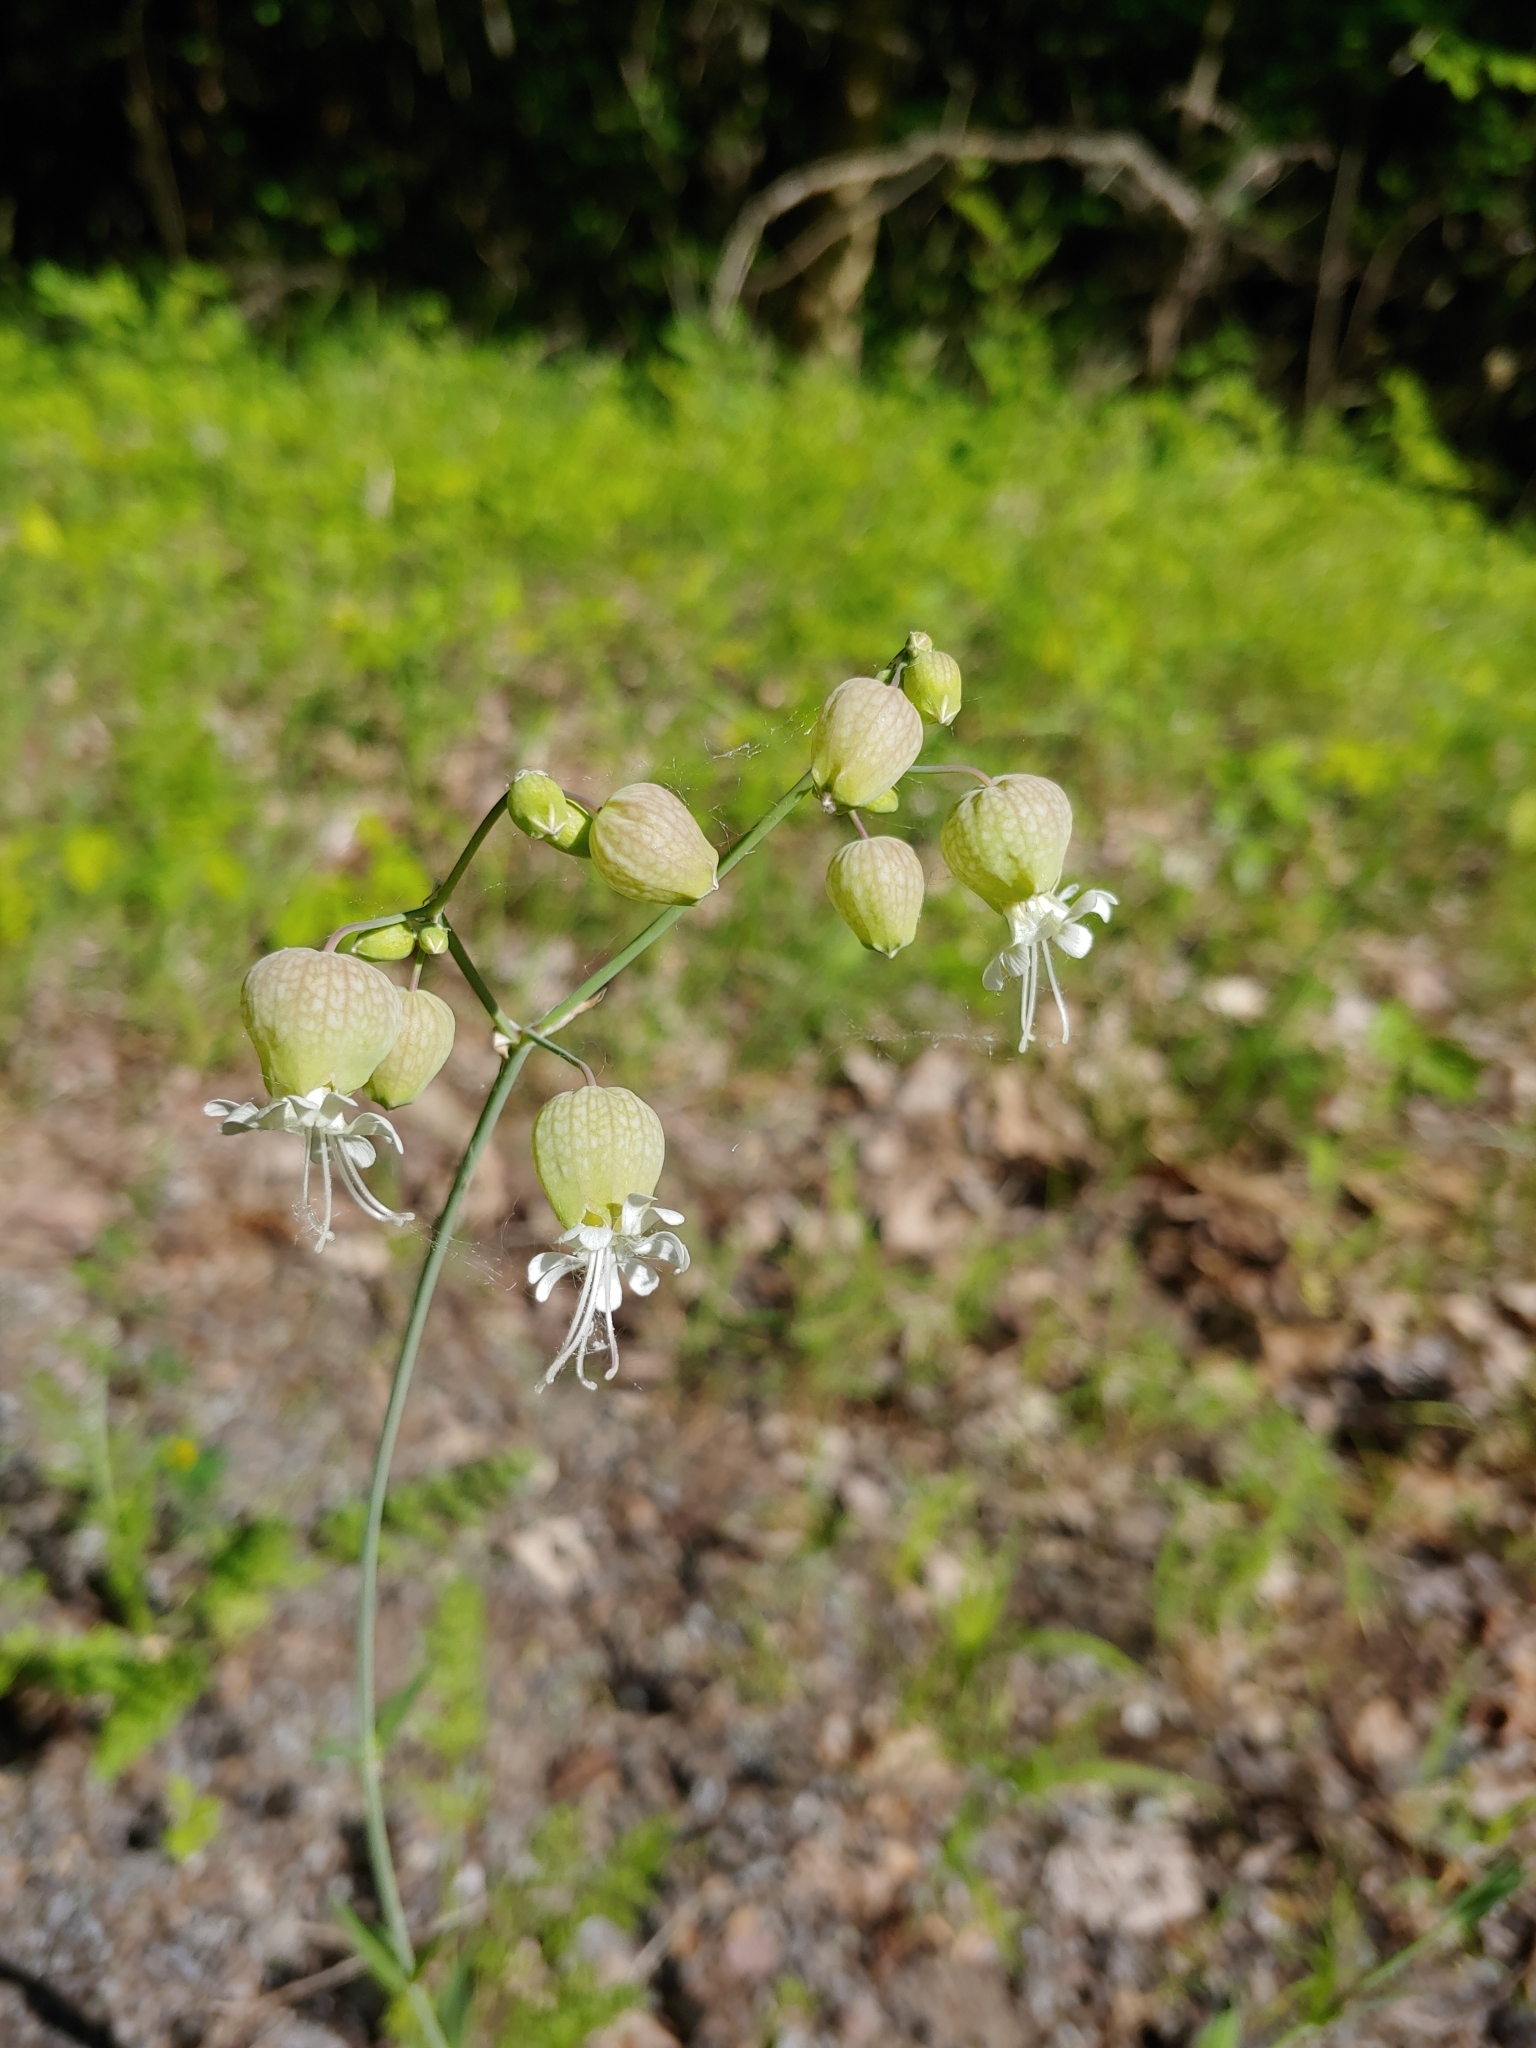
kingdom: Plantae
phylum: Tracheophyta
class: Magnoliopsida
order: Caryophyllales
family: Caryophyllaceae
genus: Silene
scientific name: Silene vulgaris
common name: Bladder campion
